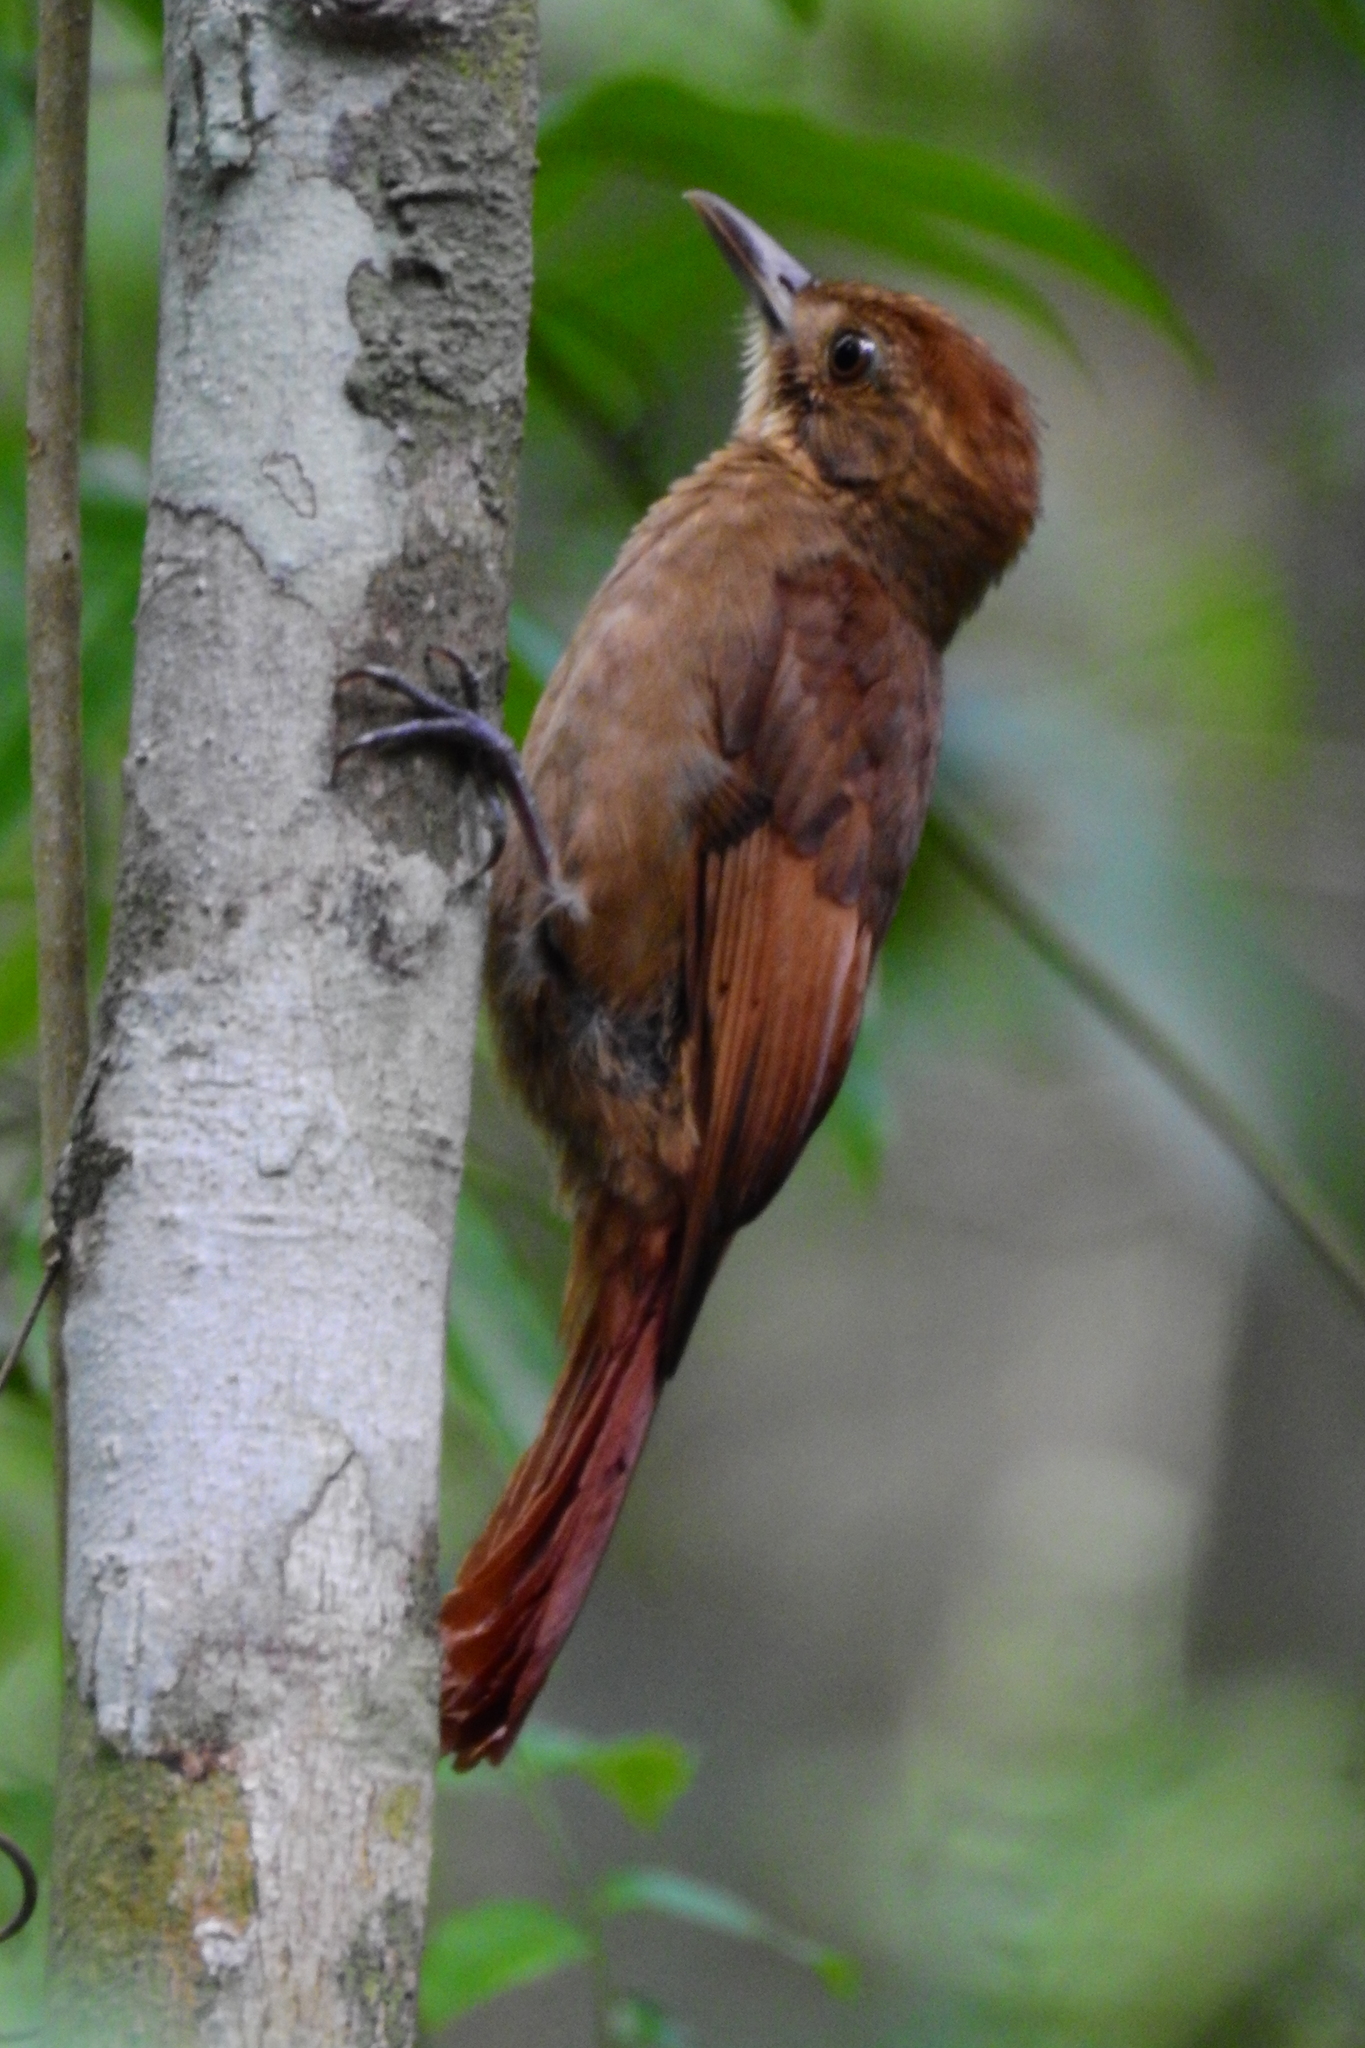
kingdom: Animalia
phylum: Chordata
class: Aves
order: Passeriformes
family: Furnariidae
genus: Dendrocincla
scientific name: Dendrocincla anabatina
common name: Tawny-winged woodcreeper
